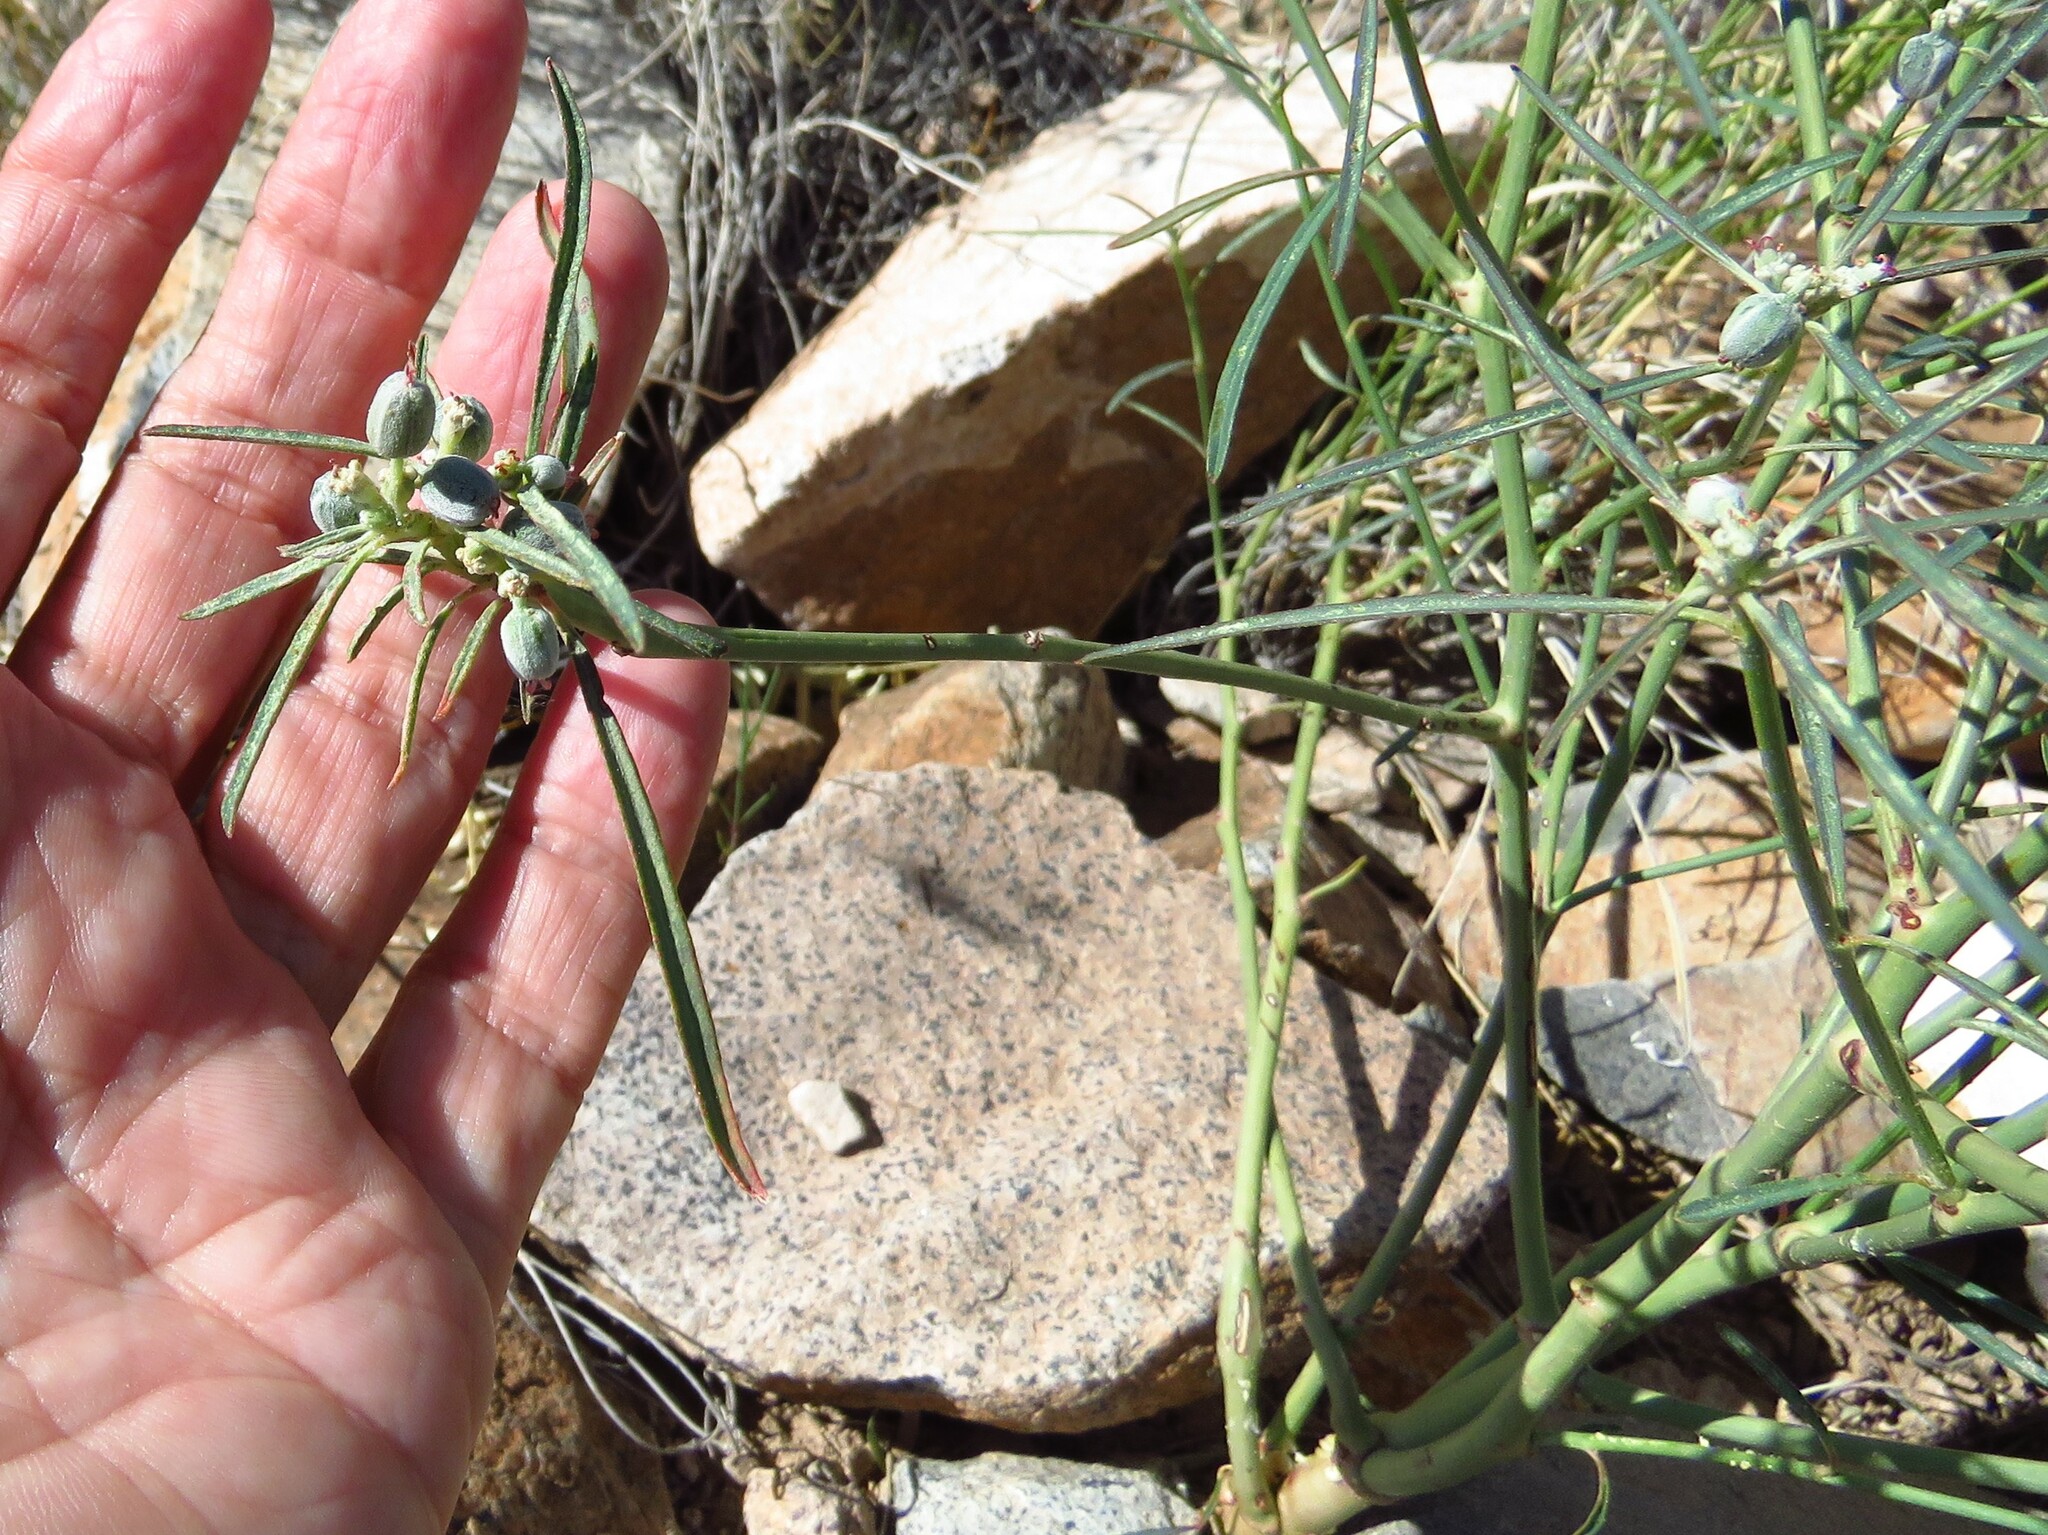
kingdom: Plantae
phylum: Tracheophyta
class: Magnoliopsida
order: Malpighiales
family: Euphorbiaceae
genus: Euphorbia
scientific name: Euphorbia eriantha
